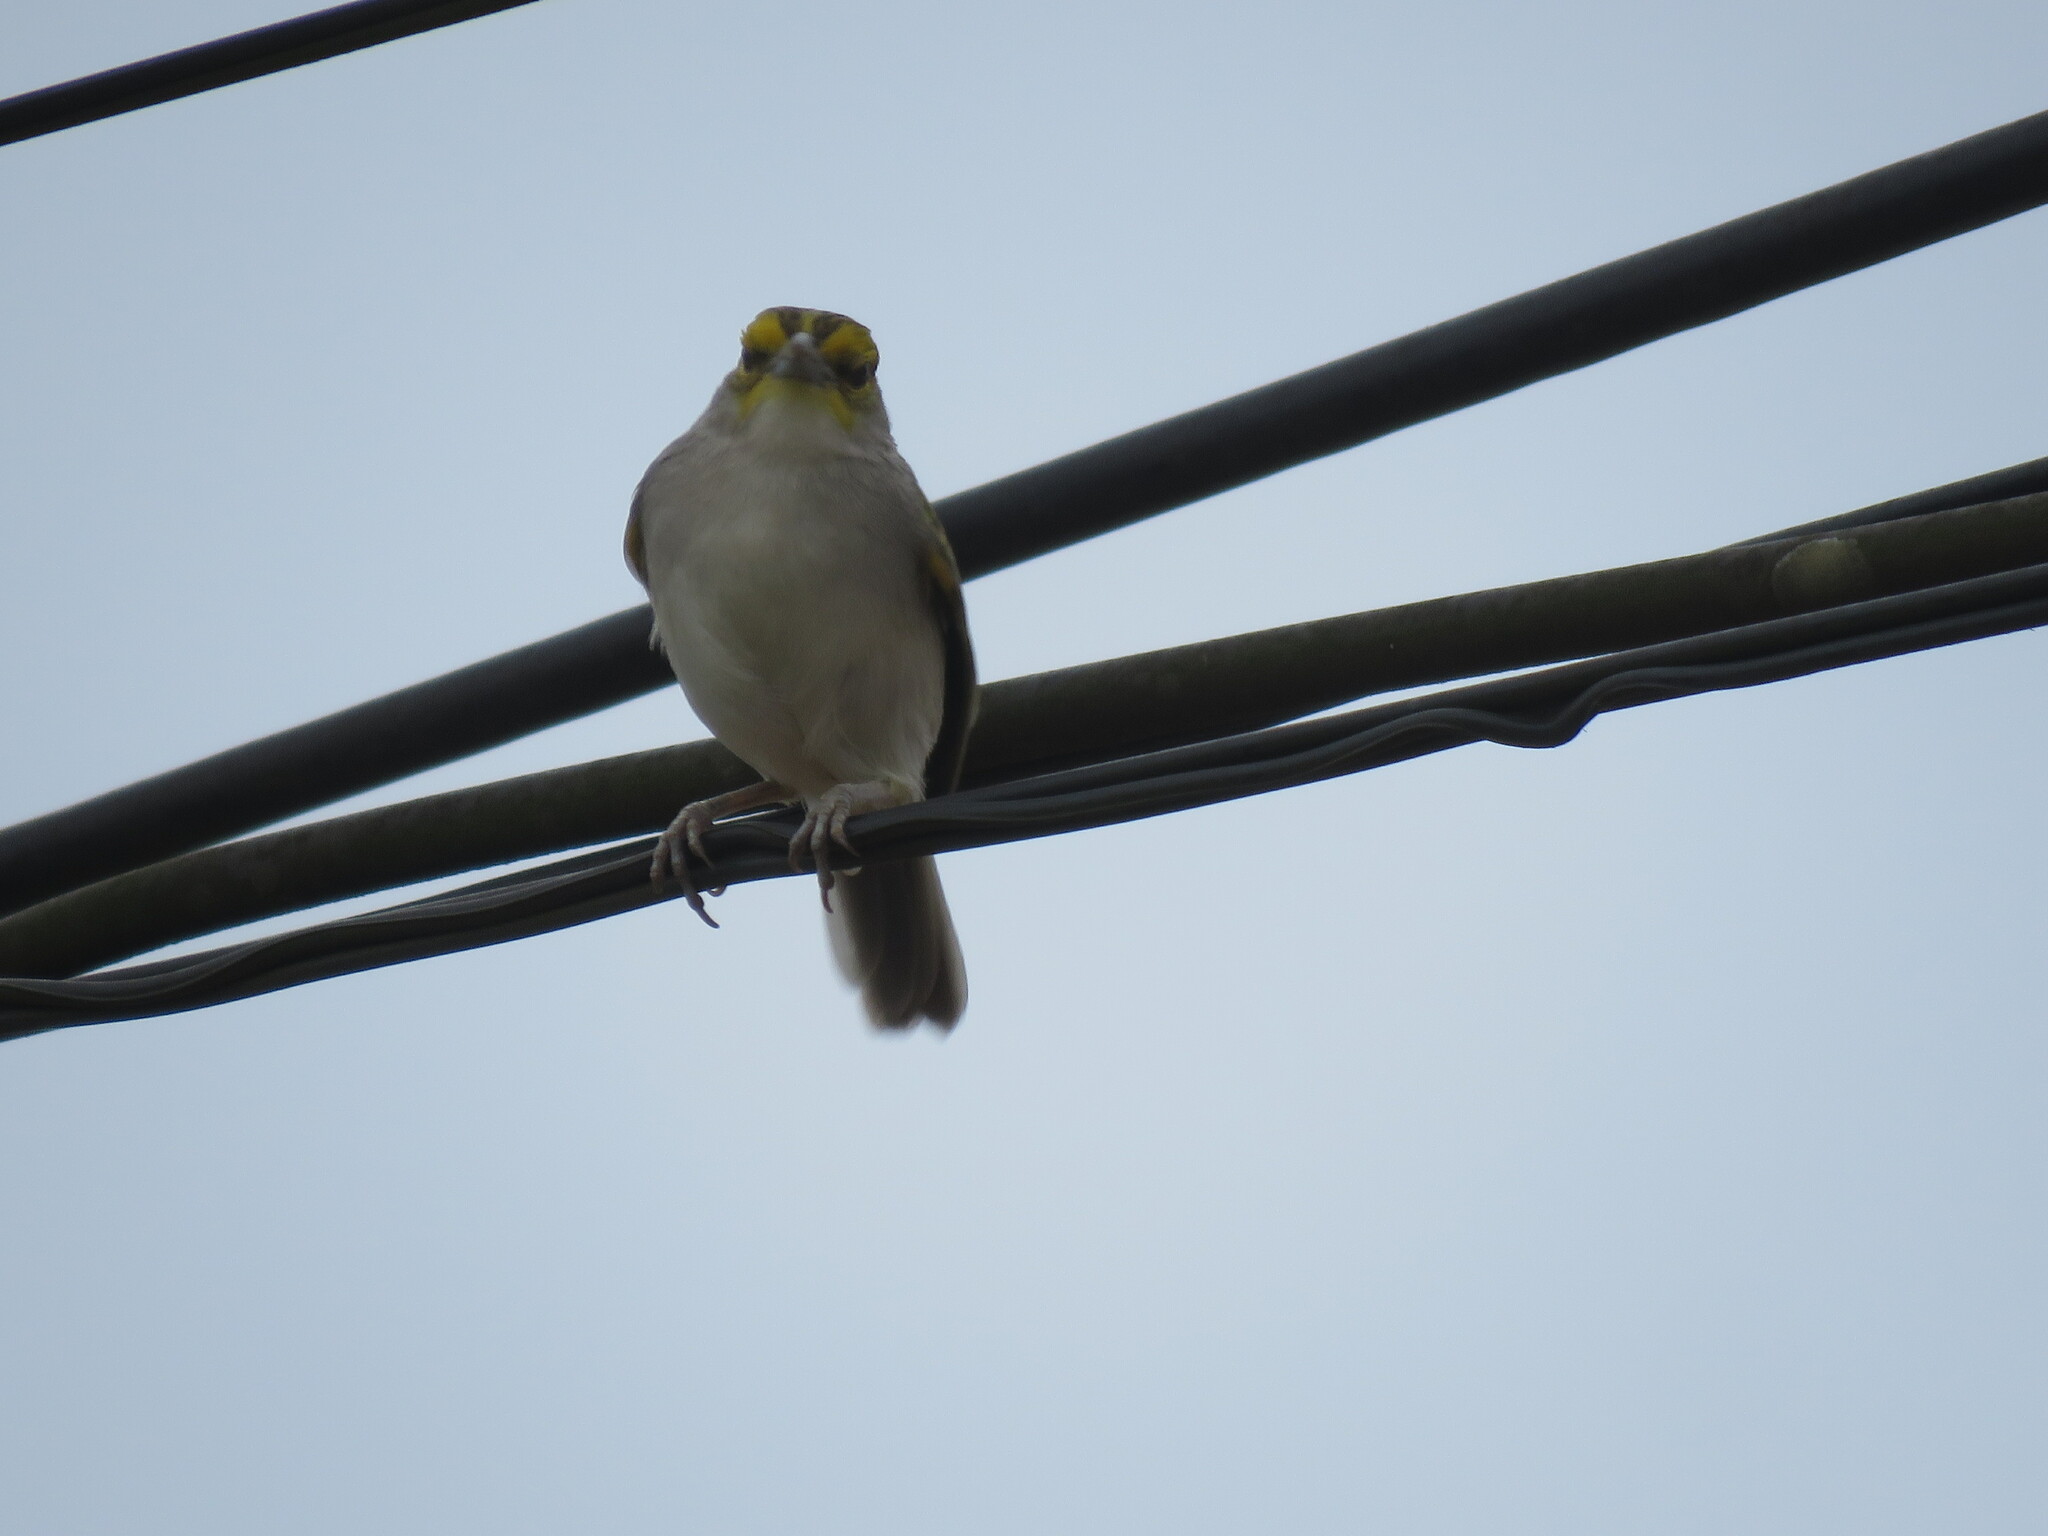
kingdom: Animalia
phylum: Chordata
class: Aves
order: Passeriformes
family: Passerellidae
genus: Ammodramus
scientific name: Ammodramus aurifrons
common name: Yellow-browed sparrow
